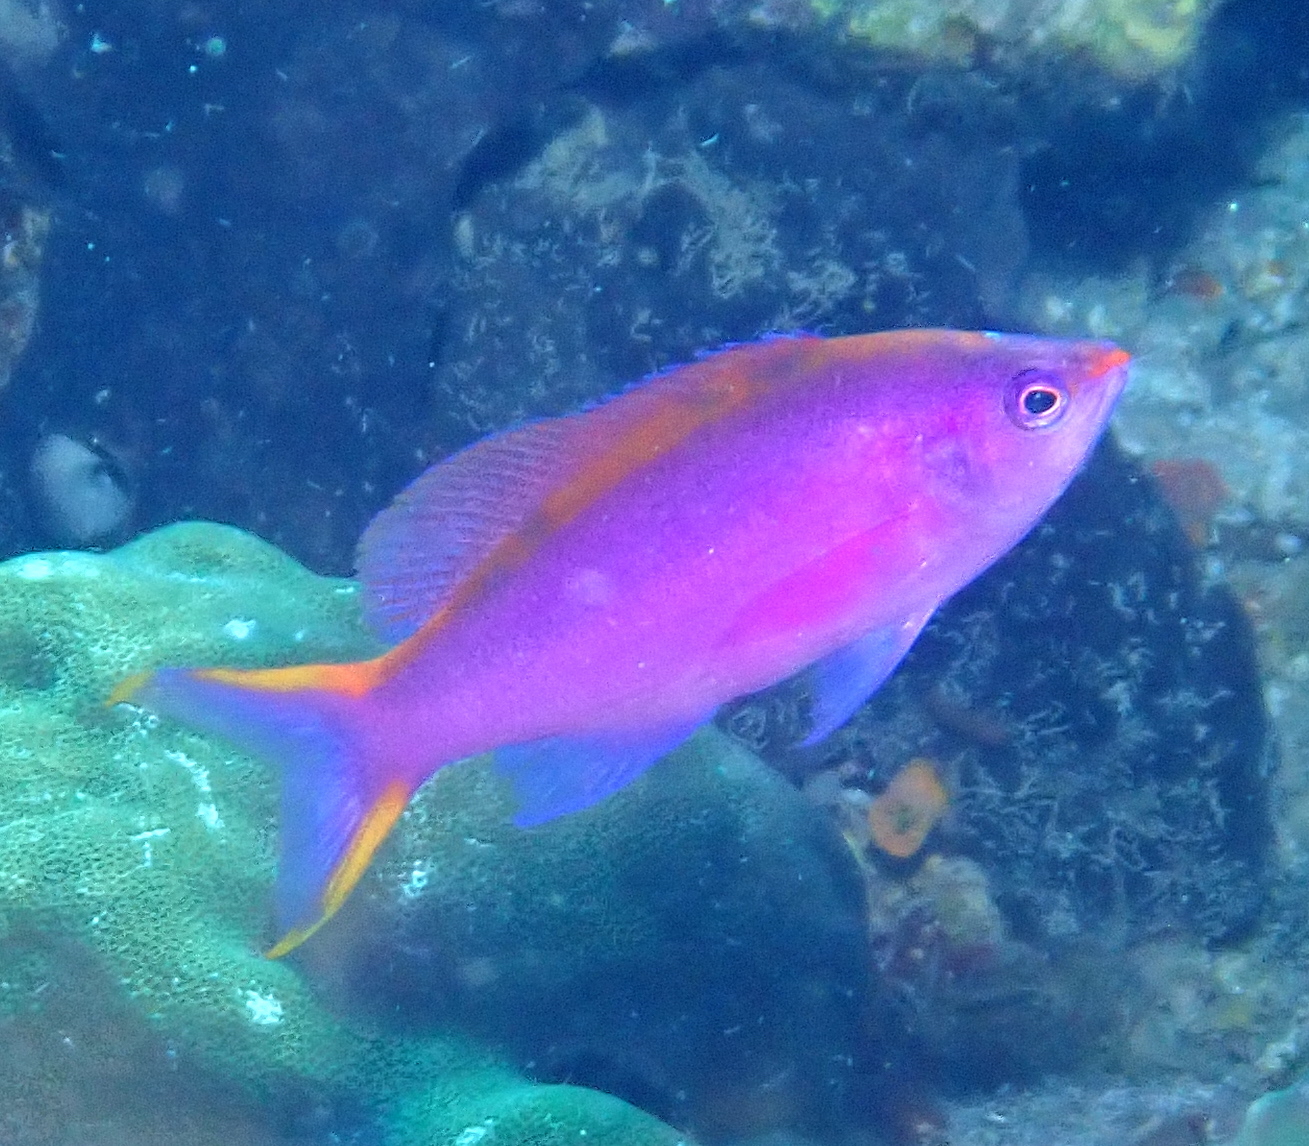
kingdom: Animalia
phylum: Chordata
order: Perciformes
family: Serranidae
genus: Pseudanthias
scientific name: Pseudanthias tuka
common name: Purple queen
